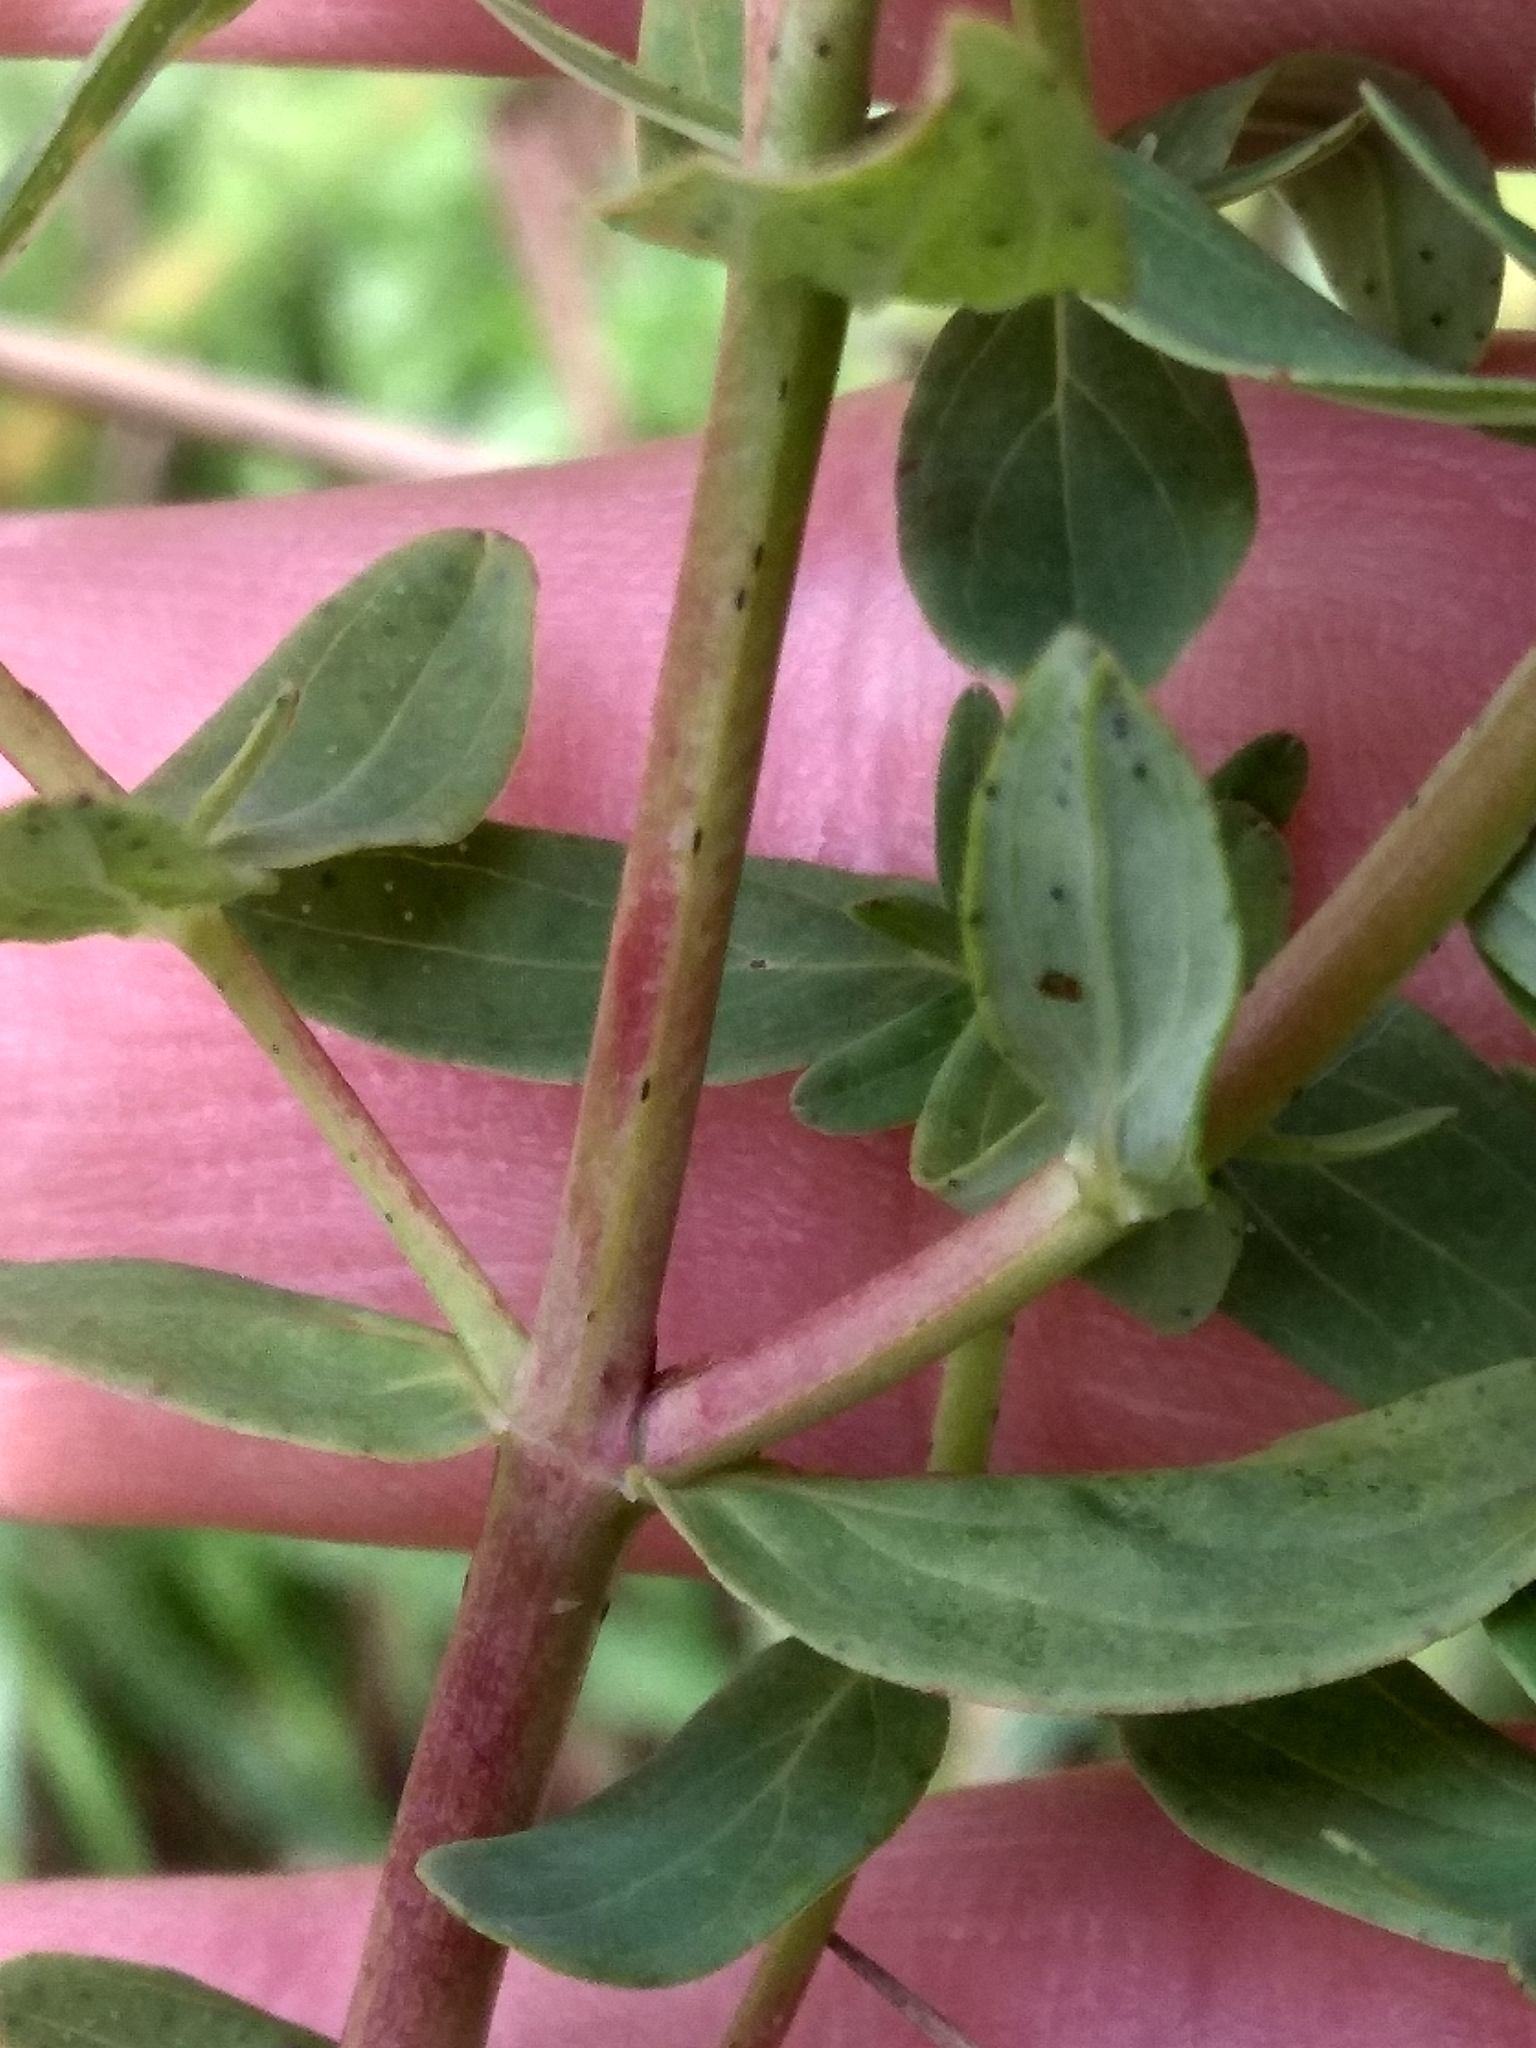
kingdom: Plantae
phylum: Tracheophyta
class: Magnoliopsida
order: Malpighiales
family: Hypericaceae
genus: Hypericum
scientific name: Hypericum perforatum
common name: Common st. johnswort
